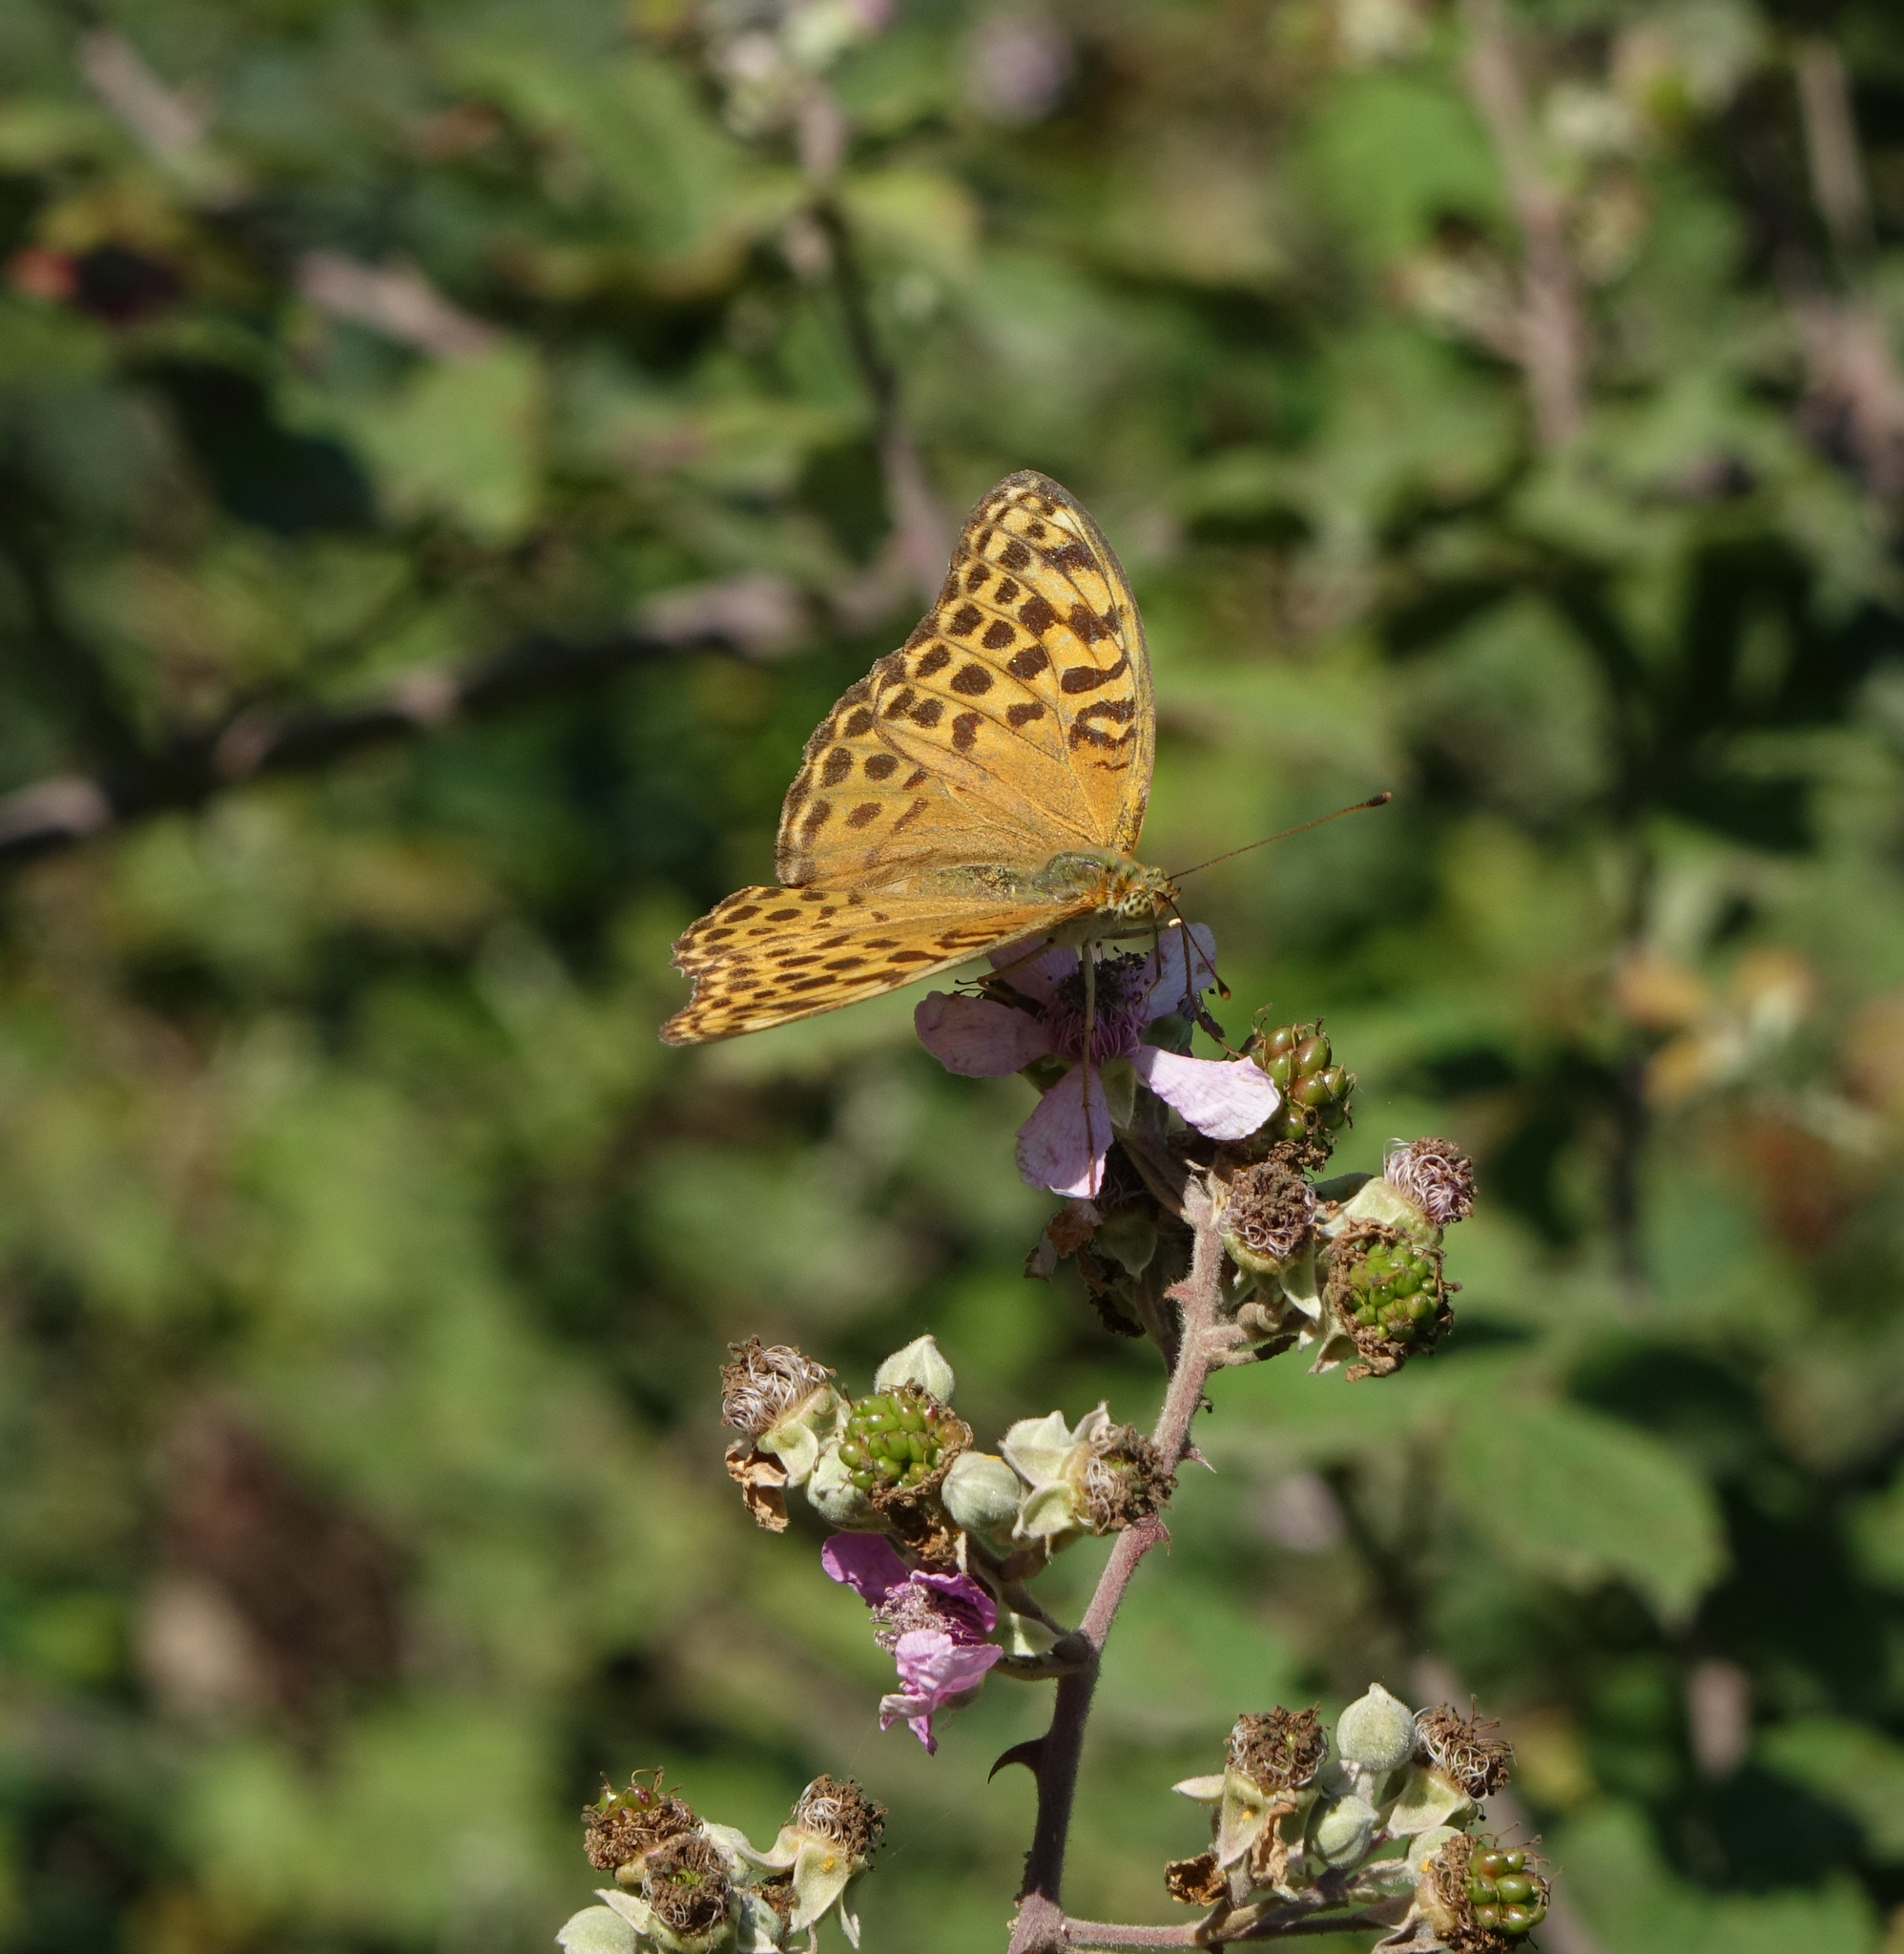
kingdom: Plantae
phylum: Tracheophyta
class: Magnoliopsida
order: Rosales
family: Rosaceae
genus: Rubus
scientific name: Rubus sanctus
